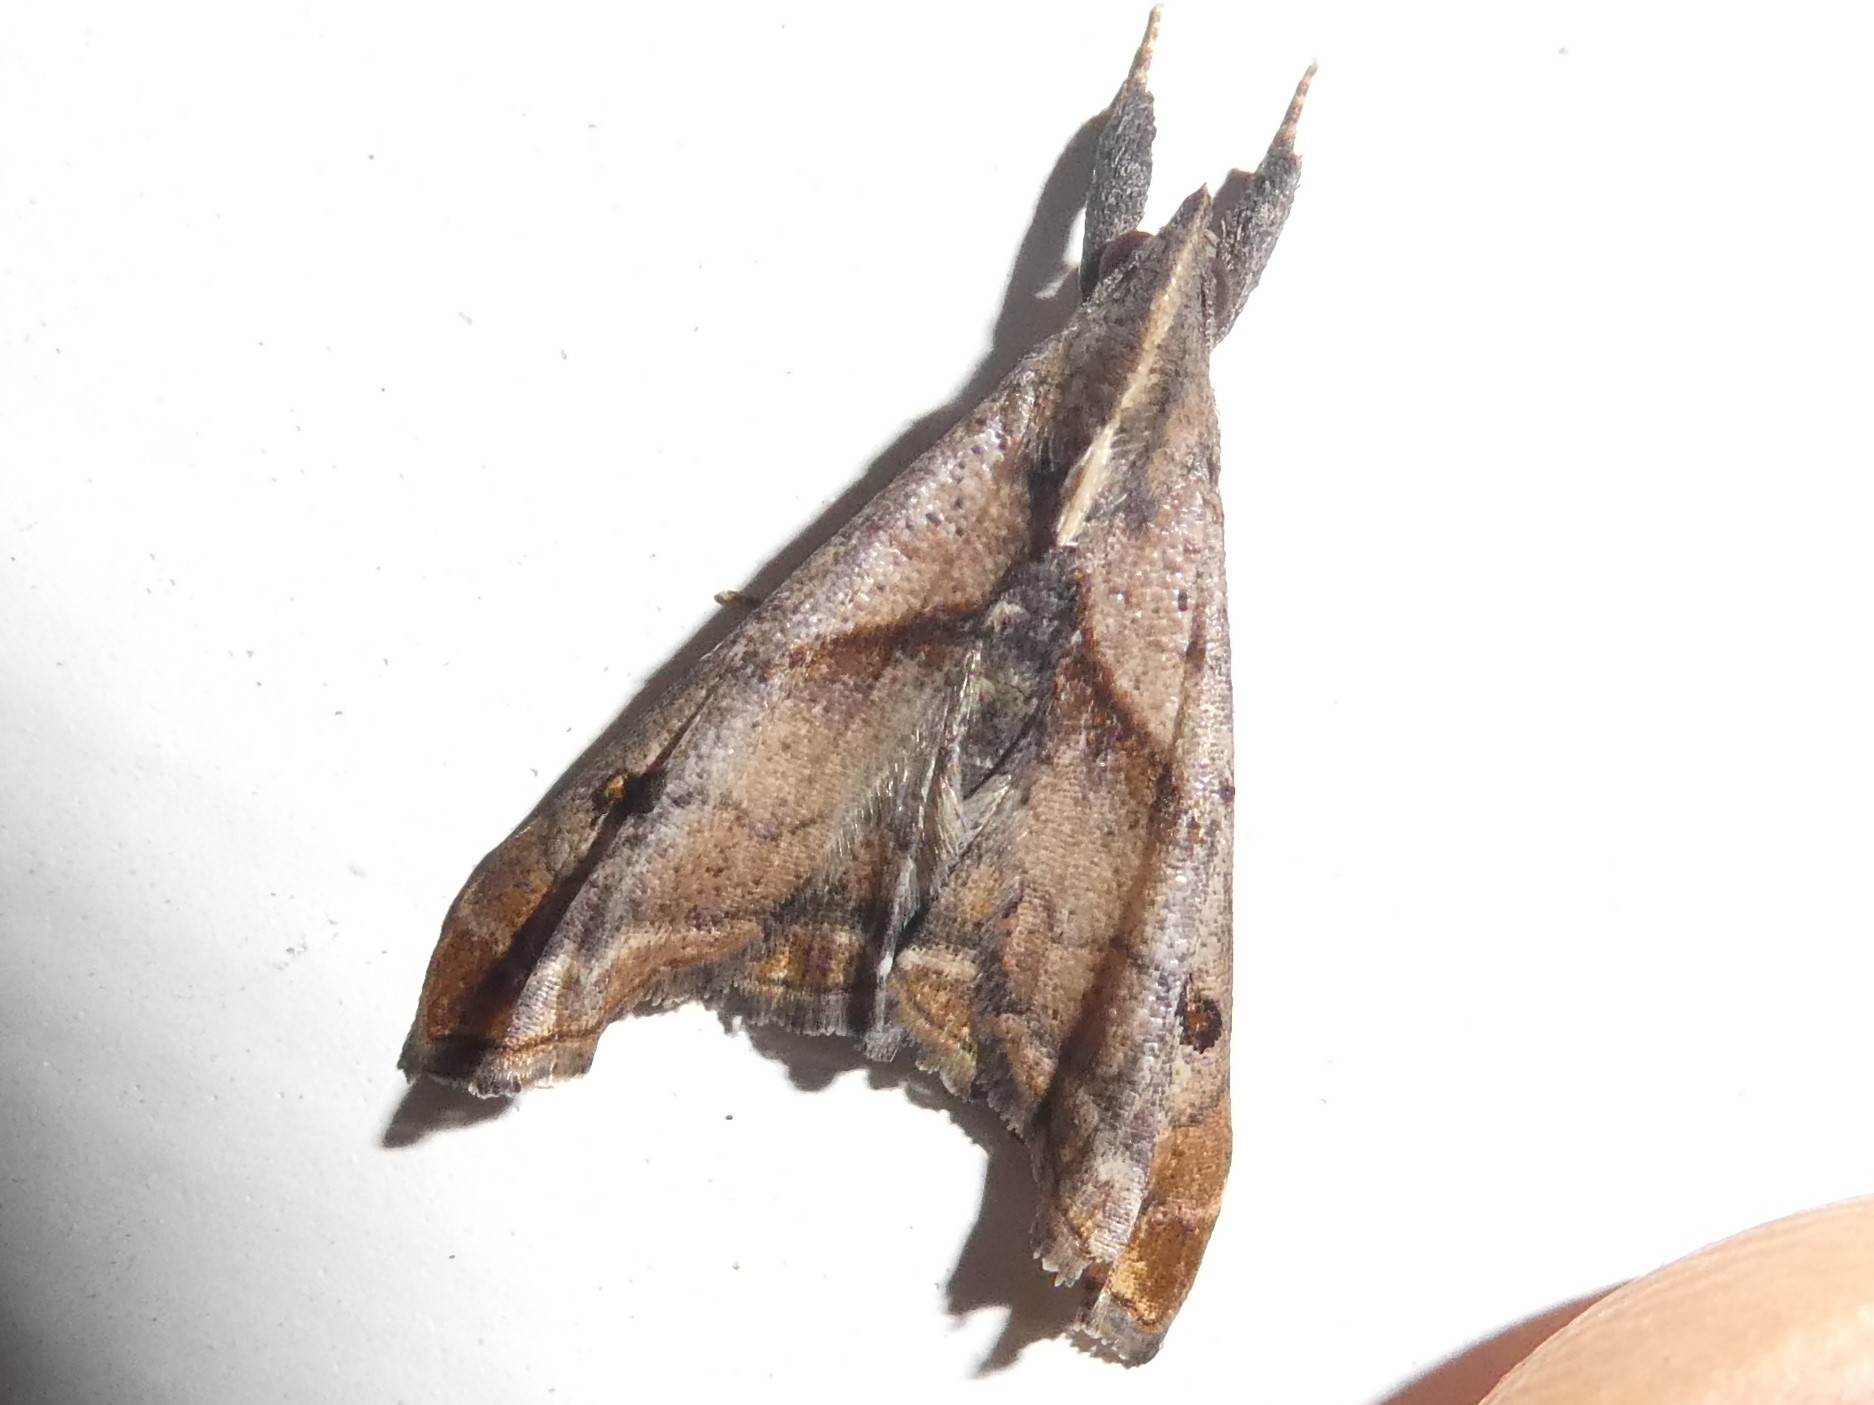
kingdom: Animalia
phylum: Arthropoda
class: Insecta
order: Lepidoptera
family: Erebidae
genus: Palthis
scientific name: Palthis angulalis
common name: Dark-spotted palthis moth
